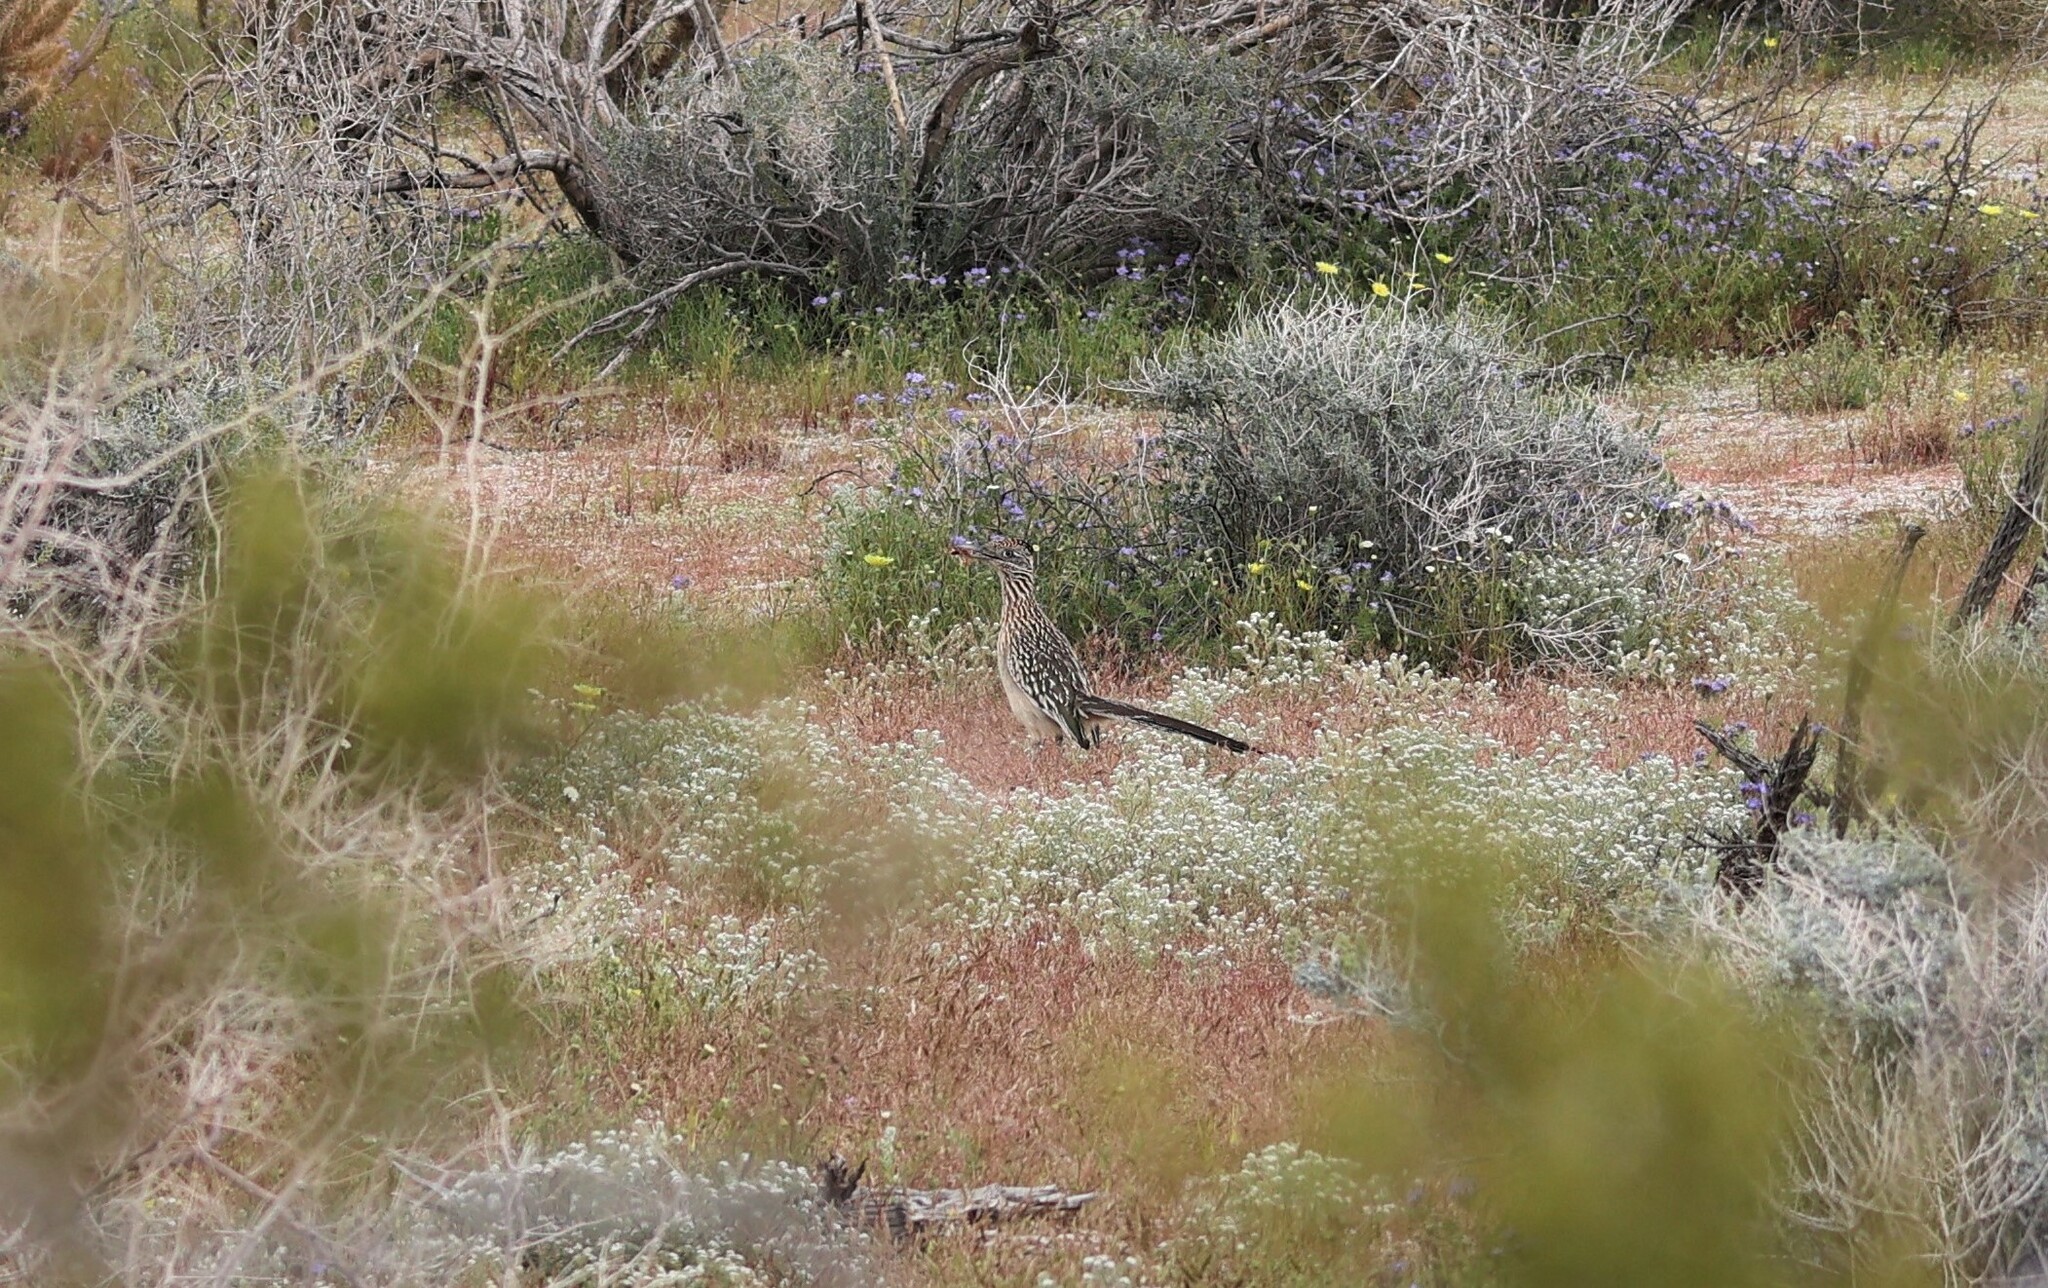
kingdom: Animalia
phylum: Chordata
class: Aves
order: Cuculiformes
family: Cuculidae
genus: Geococcyx
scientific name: Geococcyx californianus
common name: Greater roadrunner
